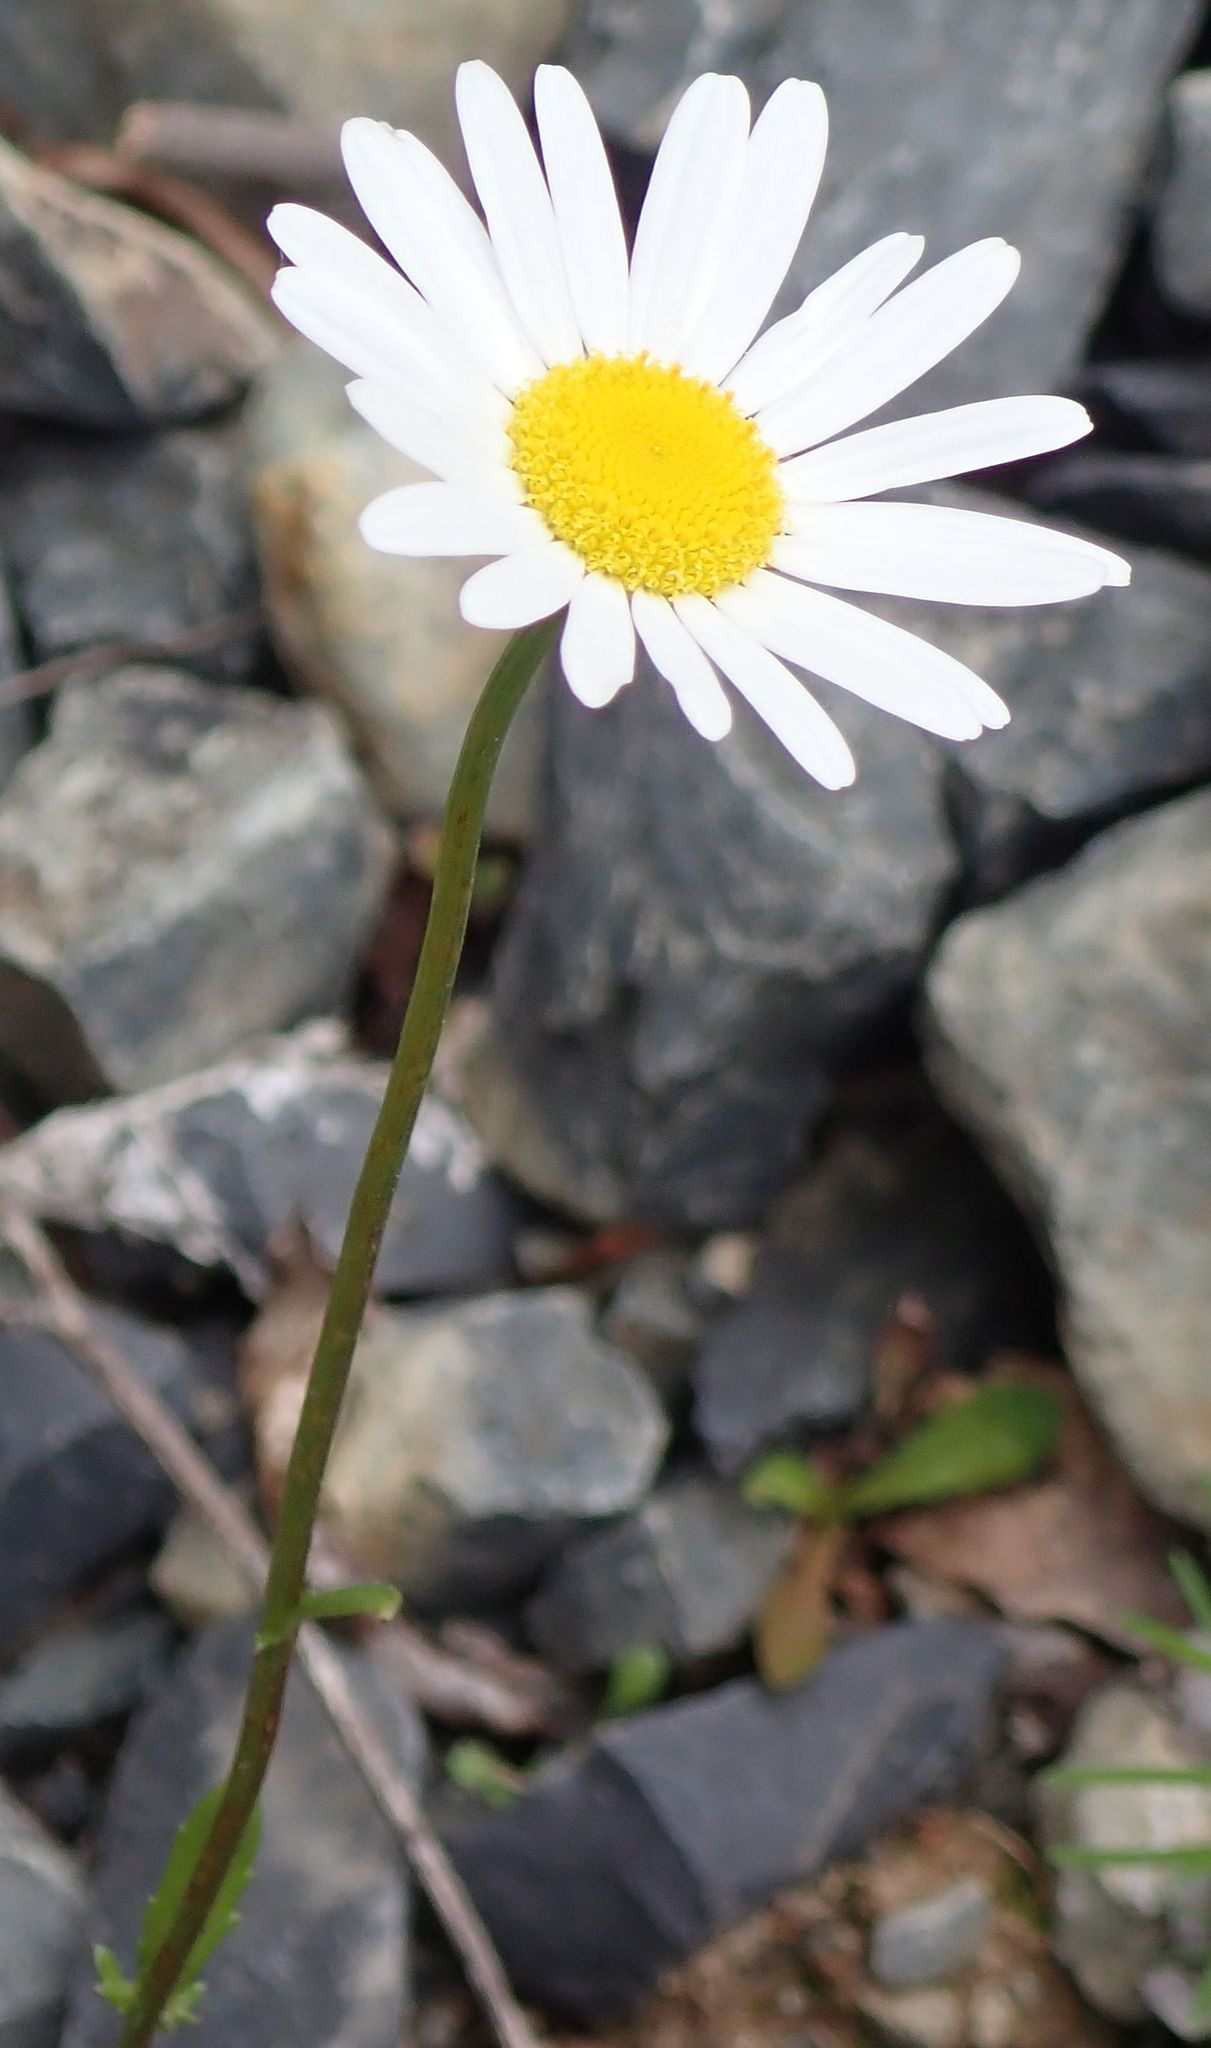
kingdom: Plantae
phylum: Tracheophyta
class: Magnoliopsida
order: Asterales
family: Asteraceae
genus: Leucanthemum
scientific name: Leucanthemum vulgare
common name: Oxeye daisy
